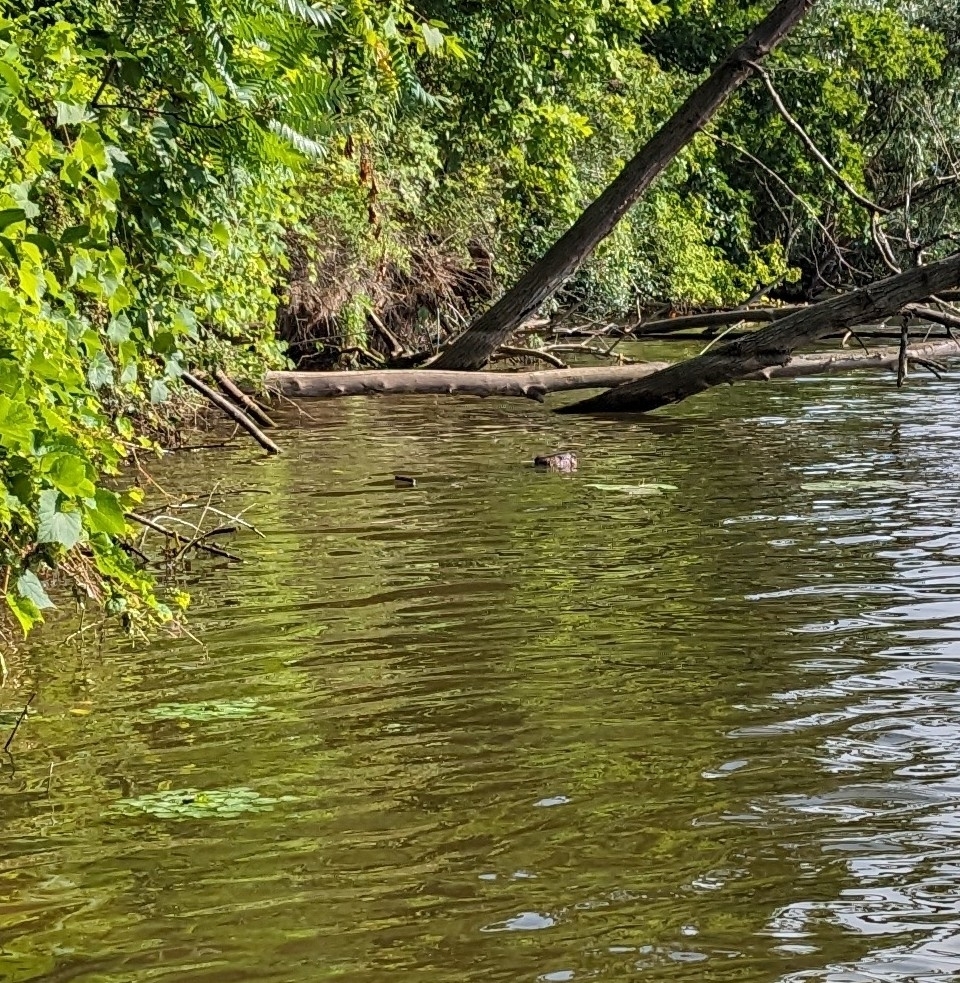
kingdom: Animalia
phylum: Chordata
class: Mammalia
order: Rodentia
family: Castoridae
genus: Castor
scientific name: Castor canadensis
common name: American beaver
